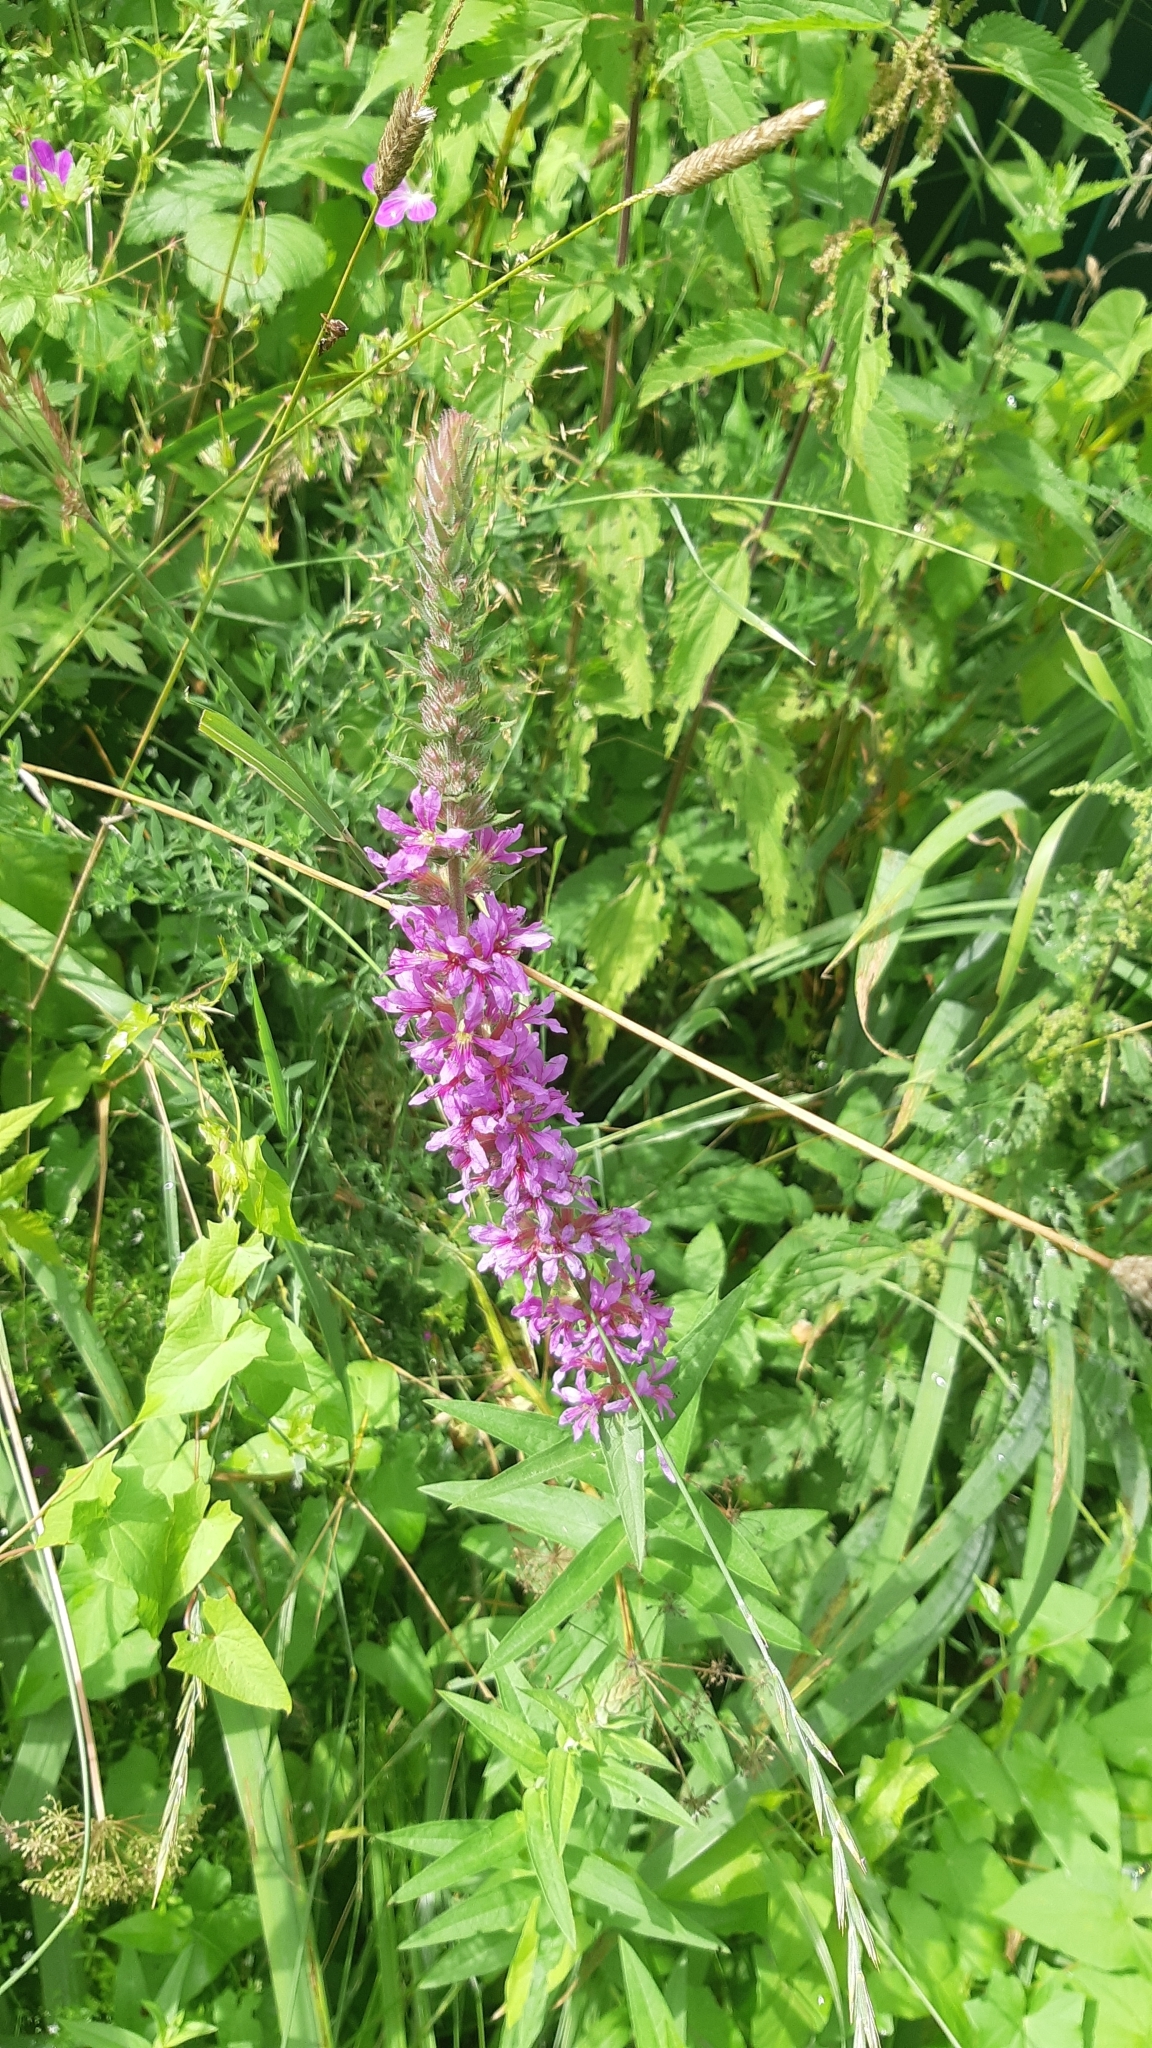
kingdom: Plantae
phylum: Tracheophyta
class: Magnoliopsida
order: Myrtales
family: Lythraceae
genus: Lythrum
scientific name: Lythrum salicaria
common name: Purple loosestrife
